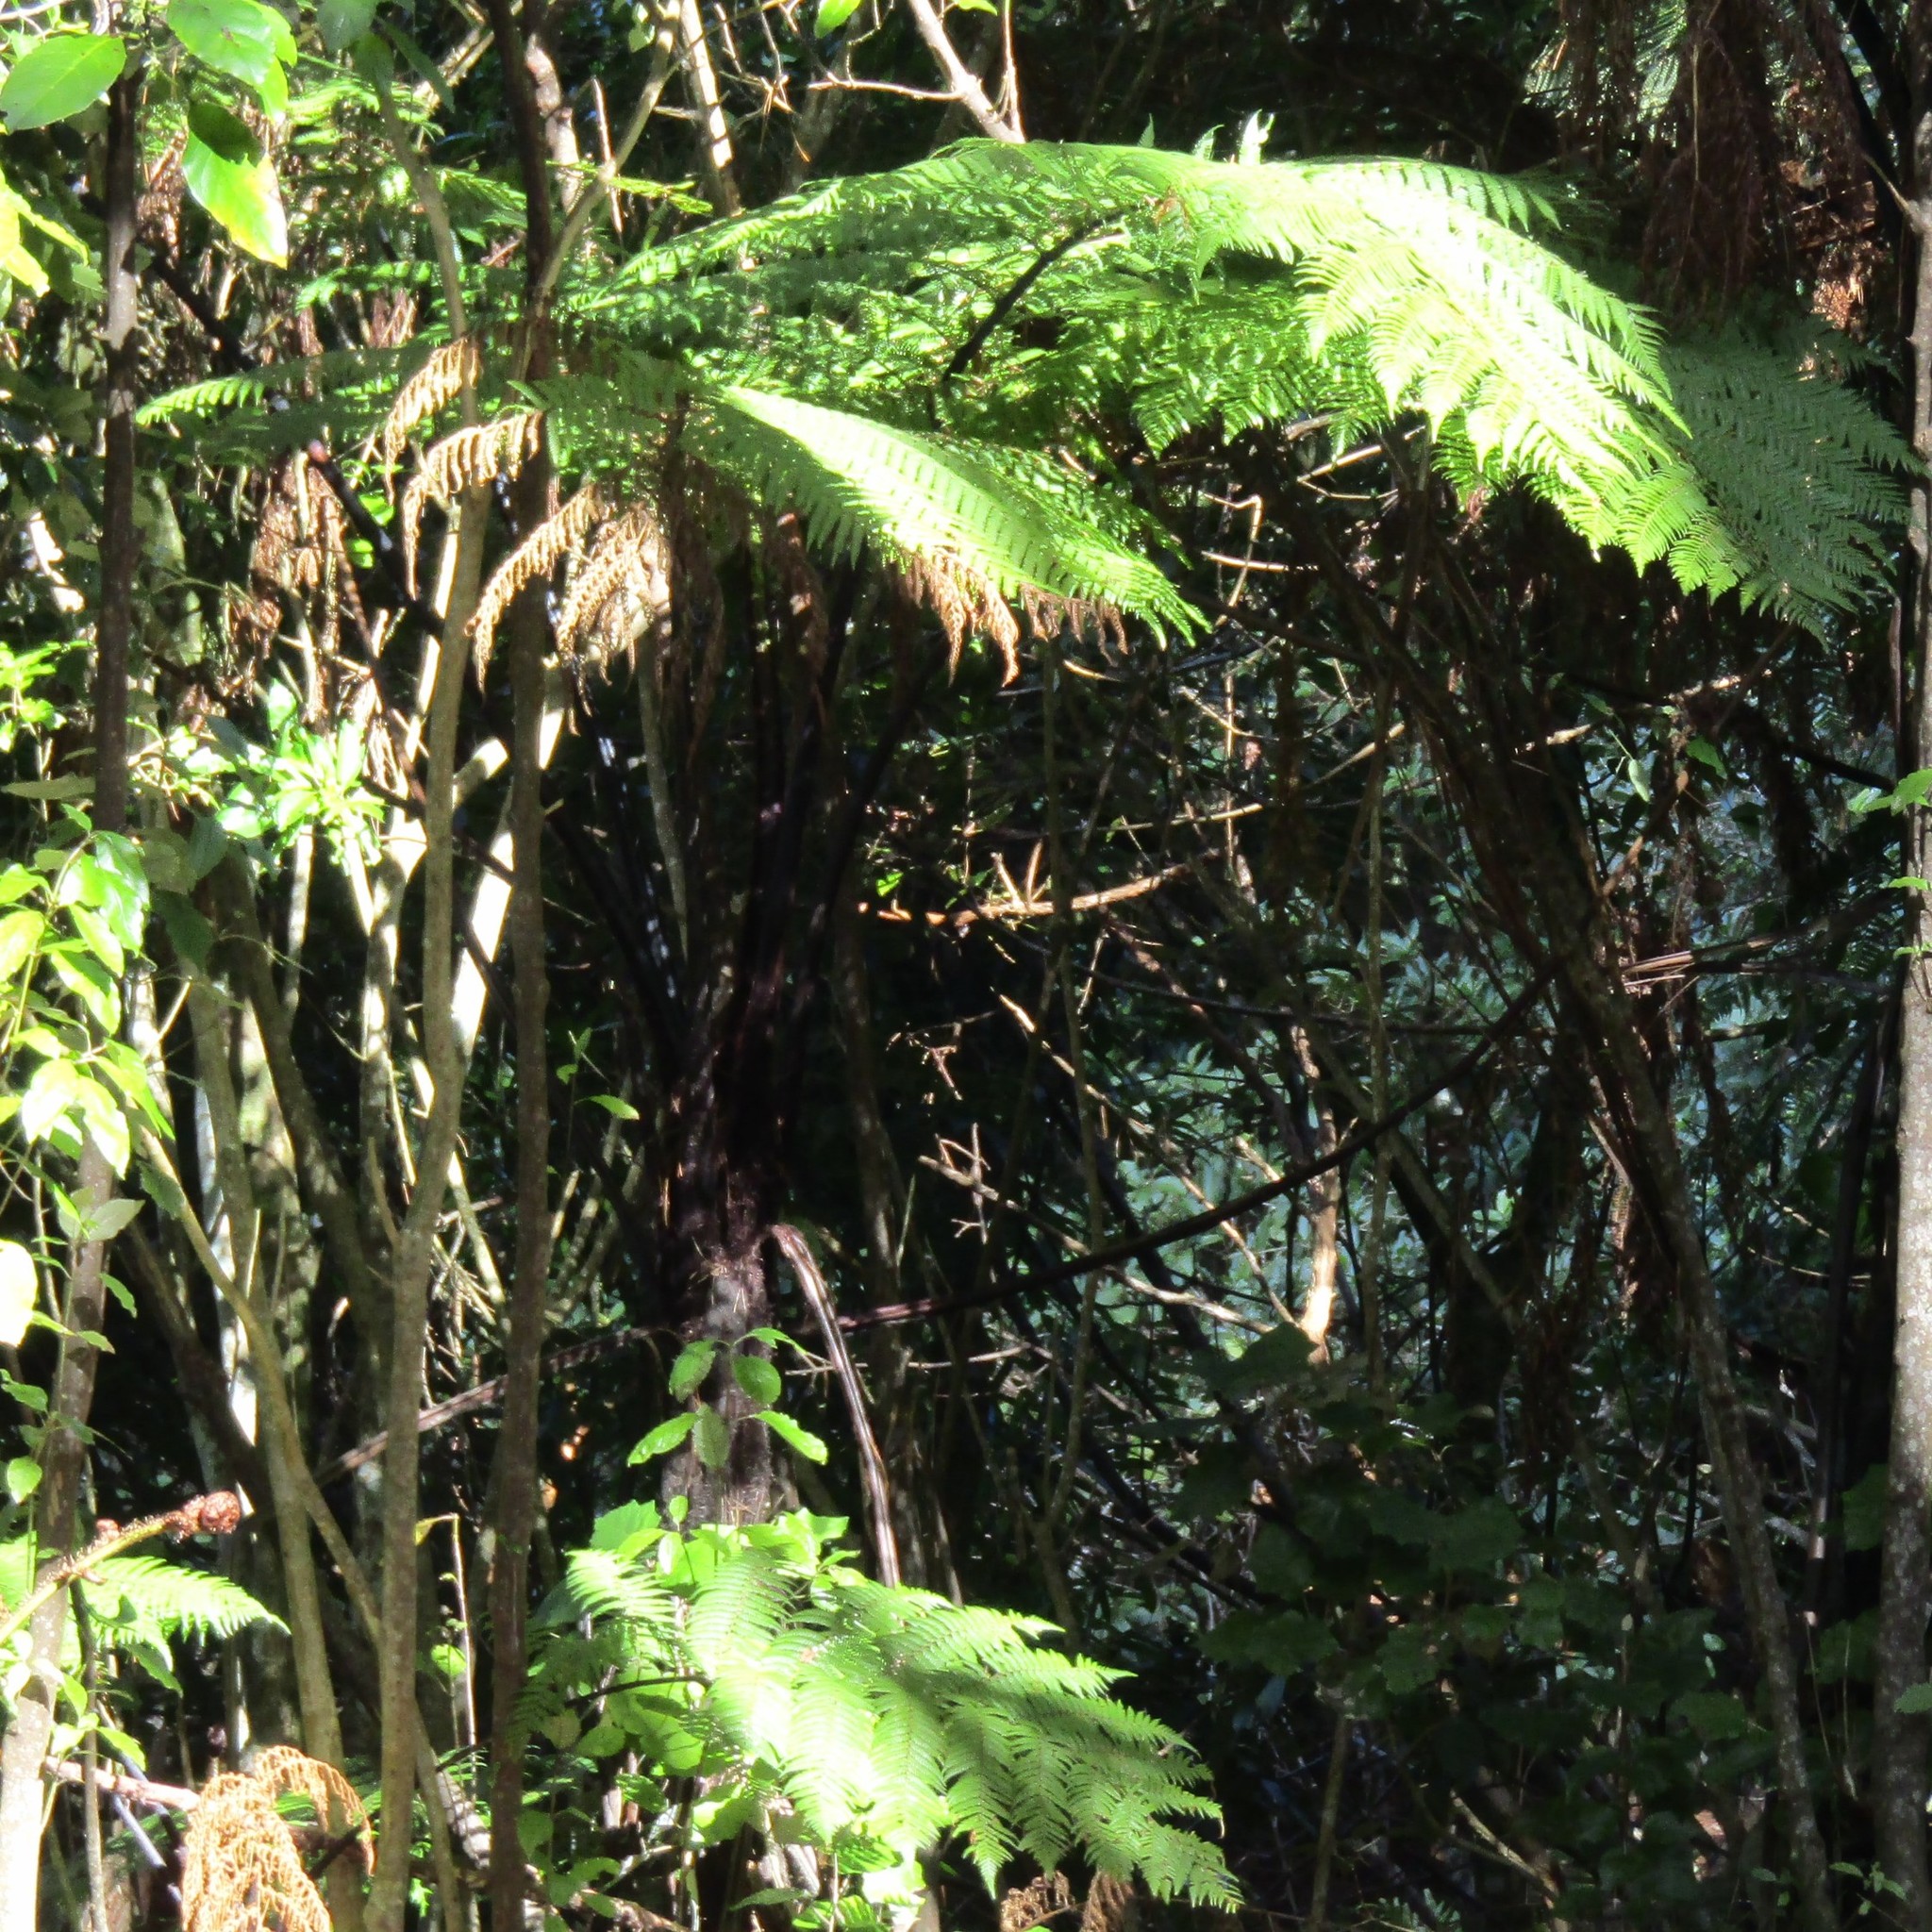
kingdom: Plantae
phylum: Tracheophyta
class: Polypodiopsida
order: Cyatheales
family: Cyatheaceae
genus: Sphaeropteris
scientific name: Sphaeropteris medullaris
